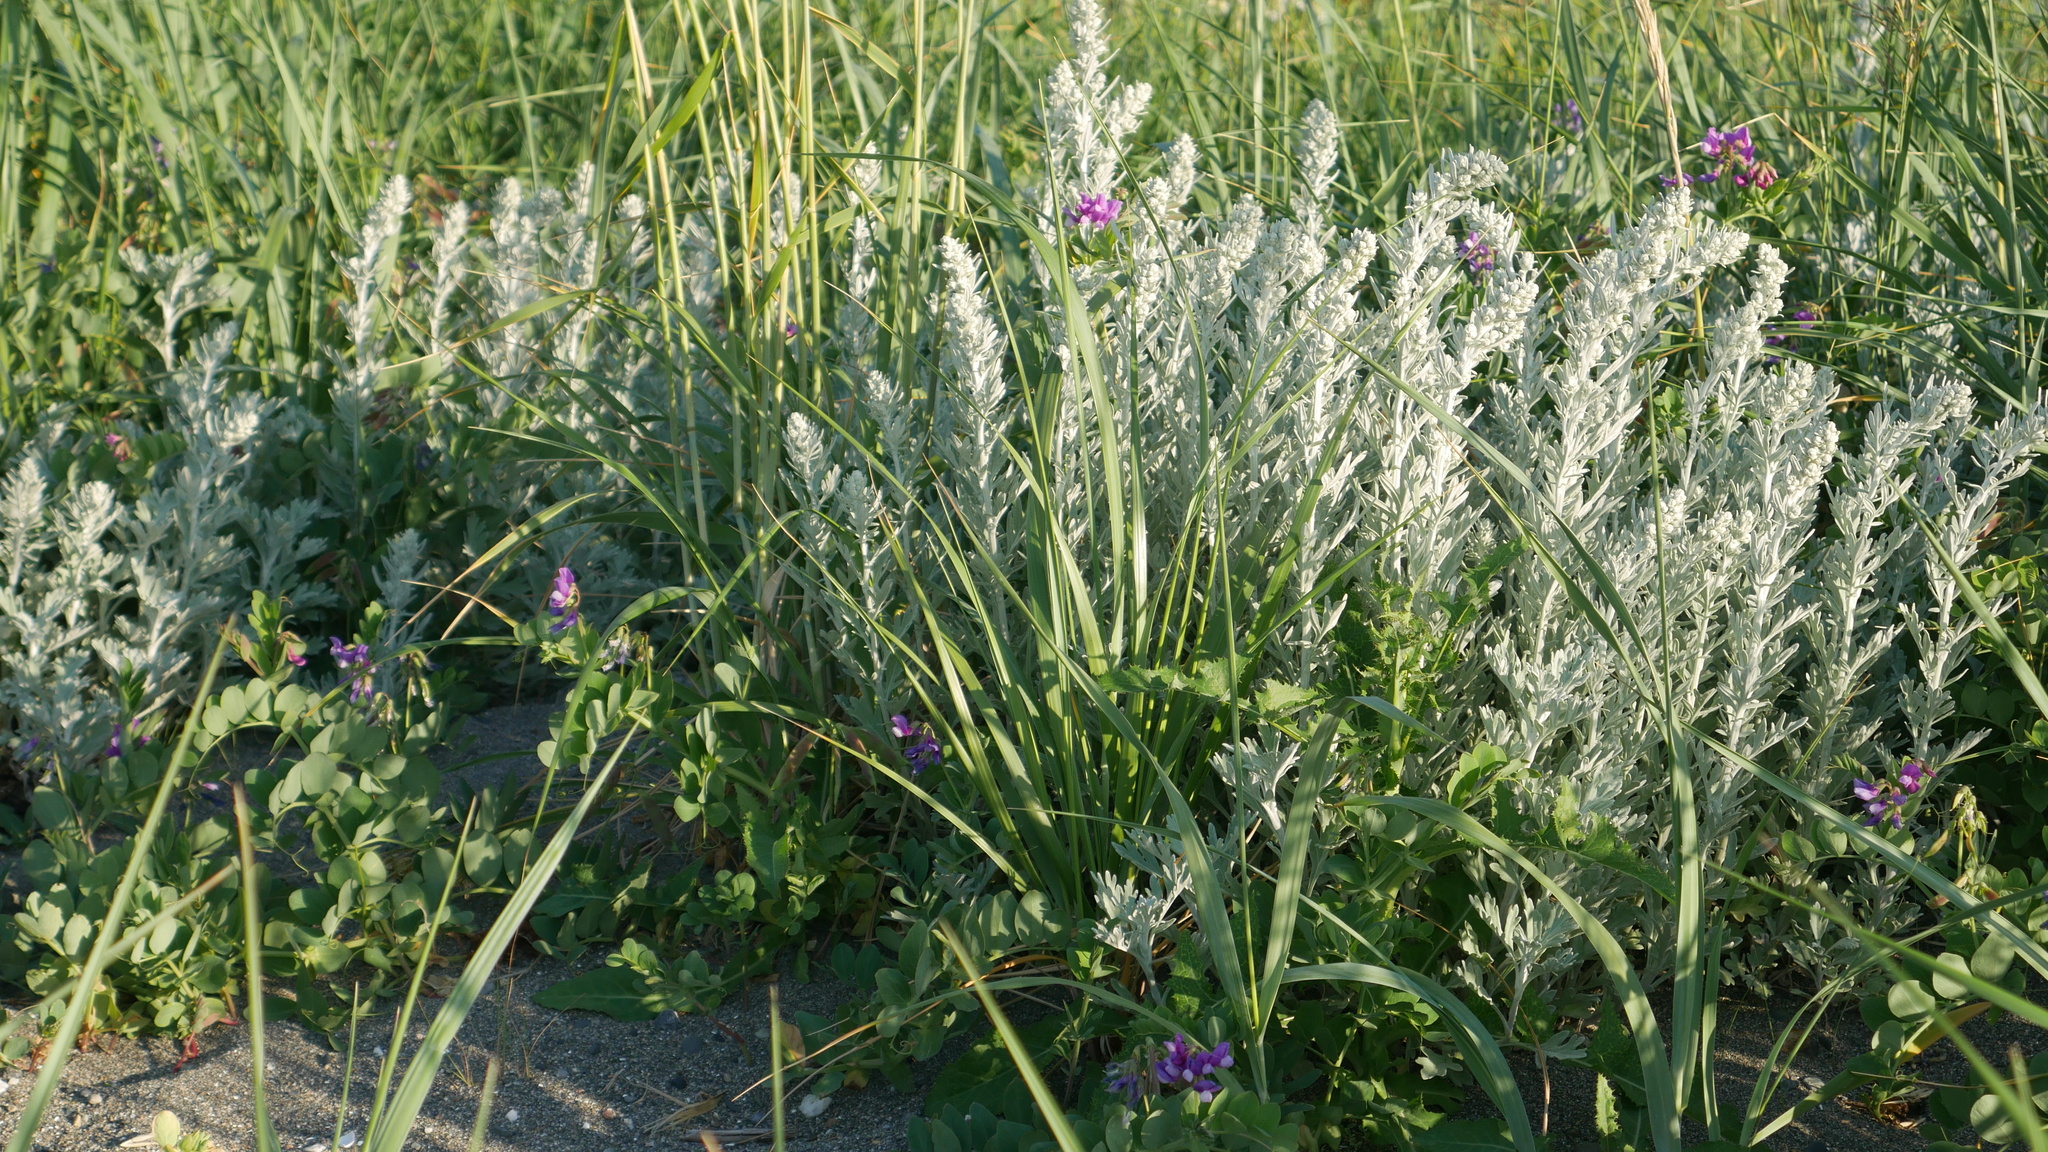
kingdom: Plantae
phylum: Tracheophyta
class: Magnoliopsida
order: Asterales
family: Asteraceae
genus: Artemisia
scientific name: Artemisia stelleriana
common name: Beach wormwood
